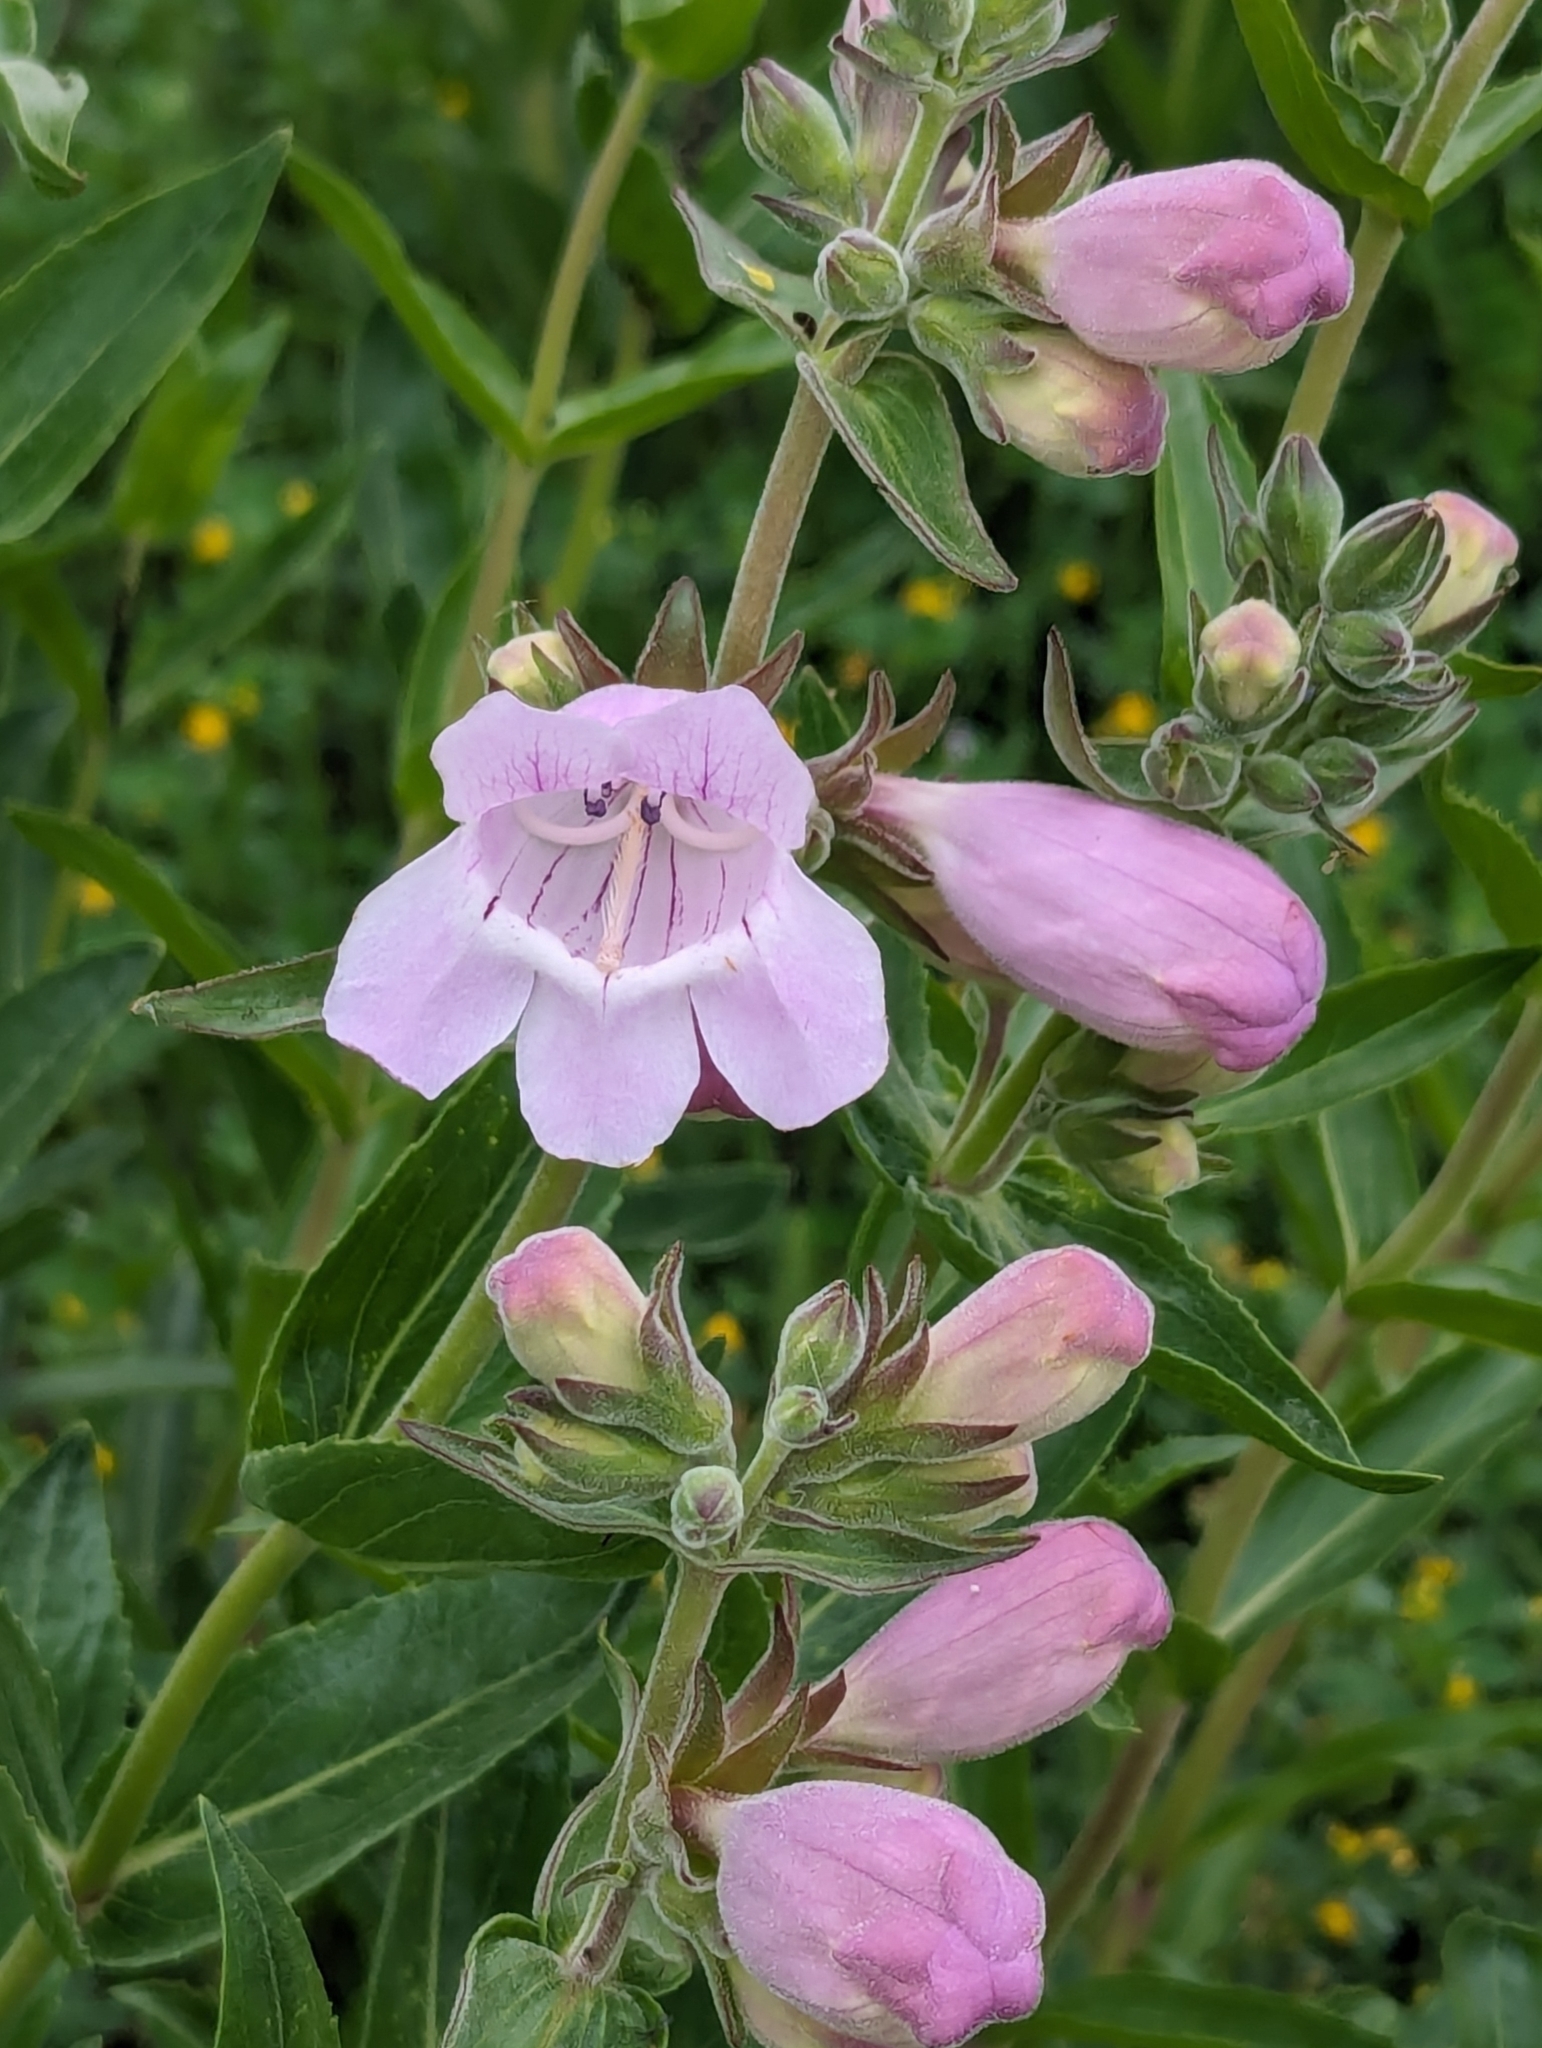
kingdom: Plantae
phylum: Tracheophyta
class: Magnoliopsida
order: Lamiales
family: Plantaginaceae
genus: Penstemon
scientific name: Penstemon cobaea
